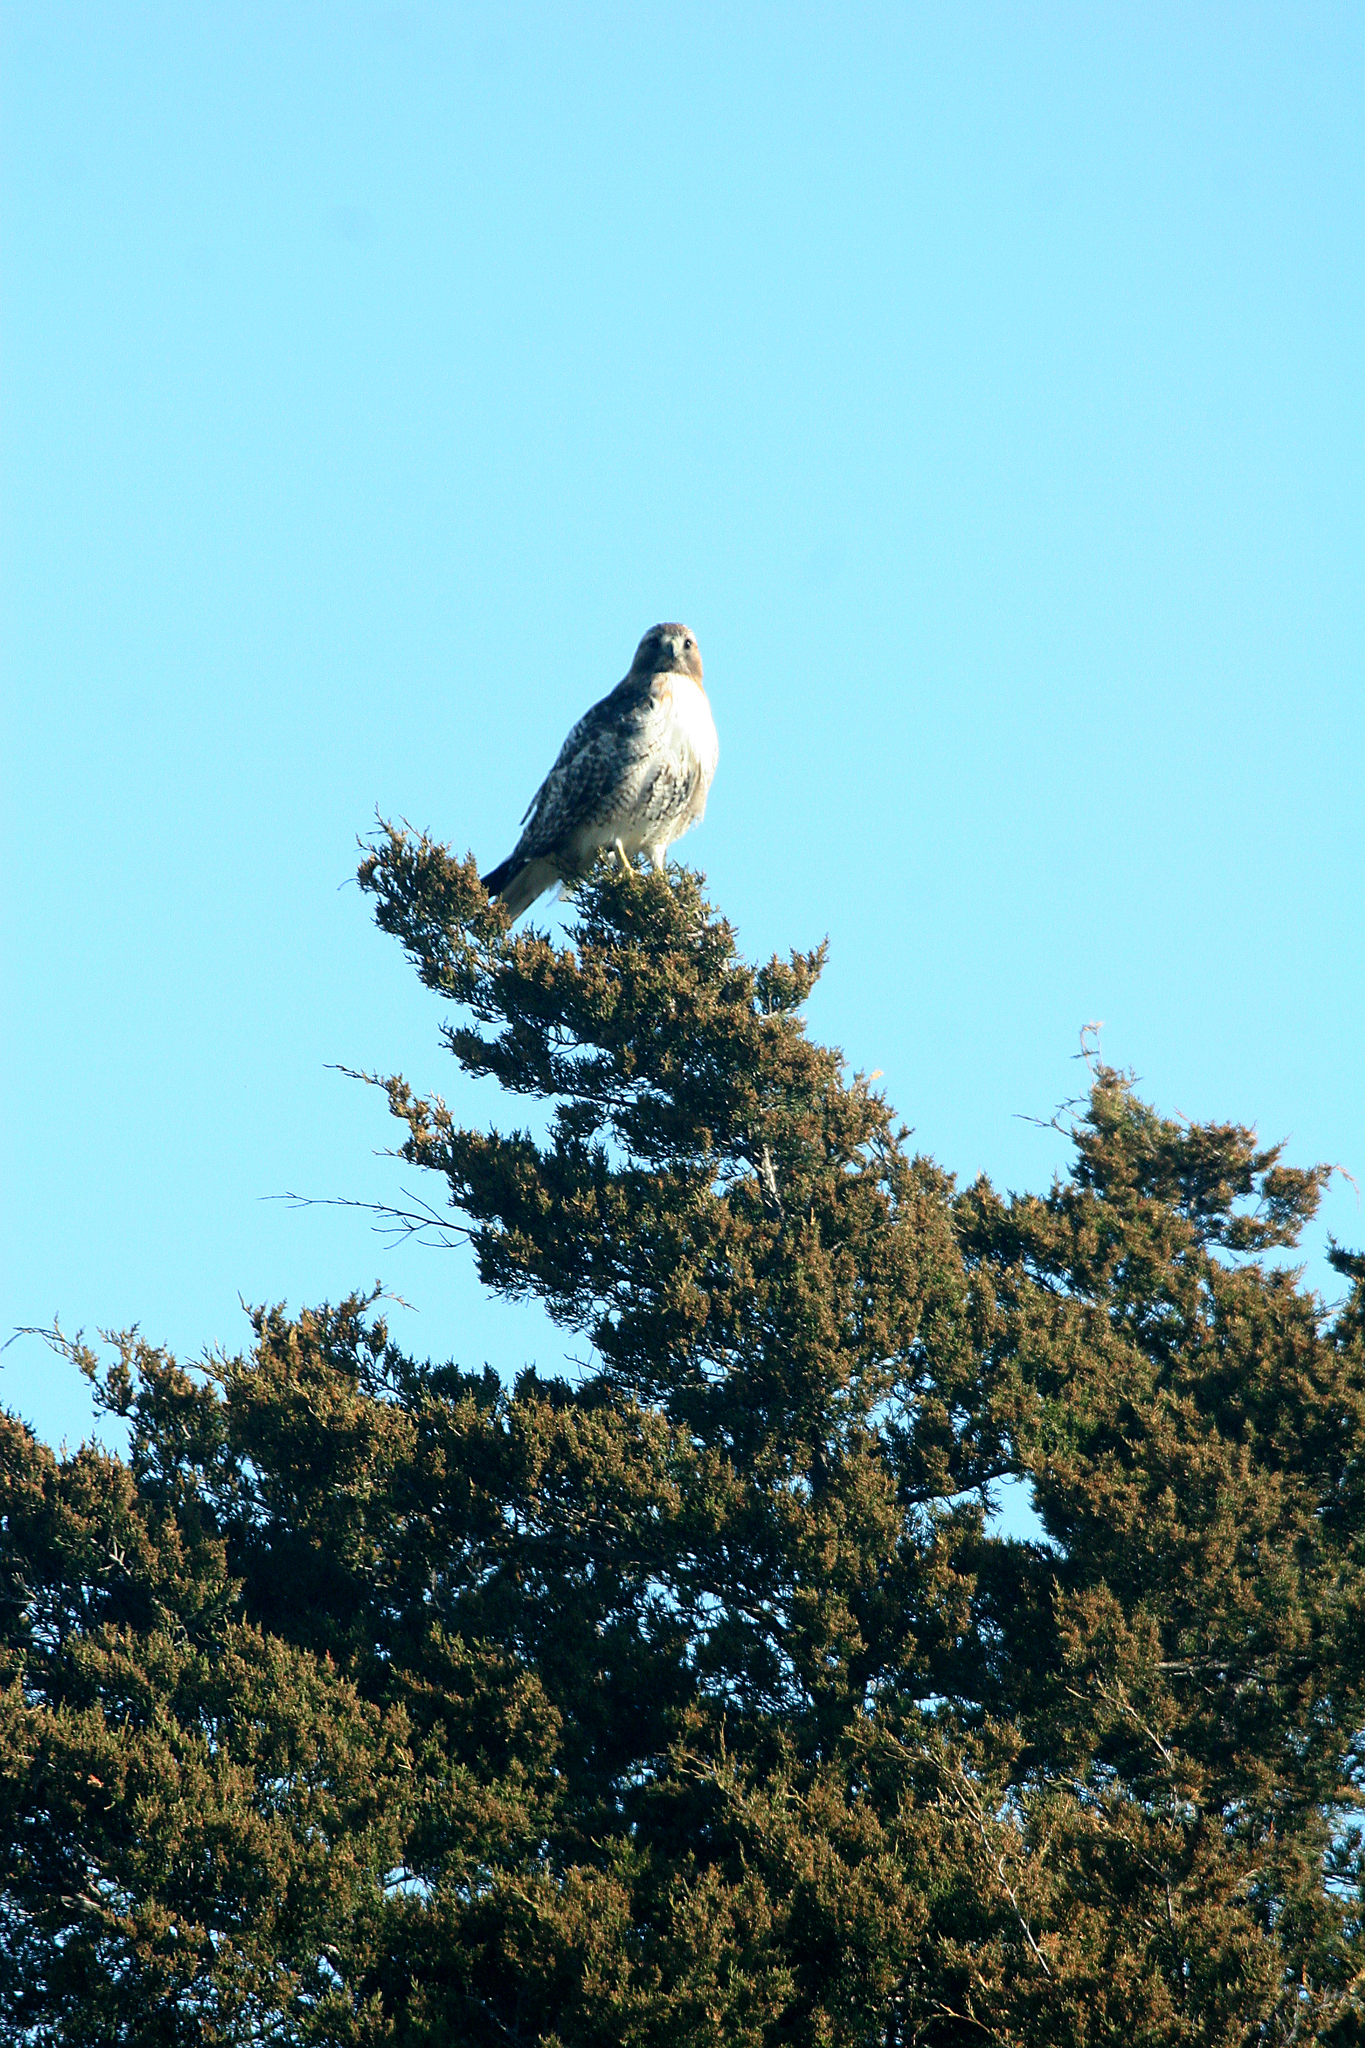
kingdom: Animalia
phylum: Chordata
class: Aves
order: Accipitriformes
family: Accipitridae
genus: Buteo
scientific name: Buteo jamaicensis
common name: Red-tailed hawk
